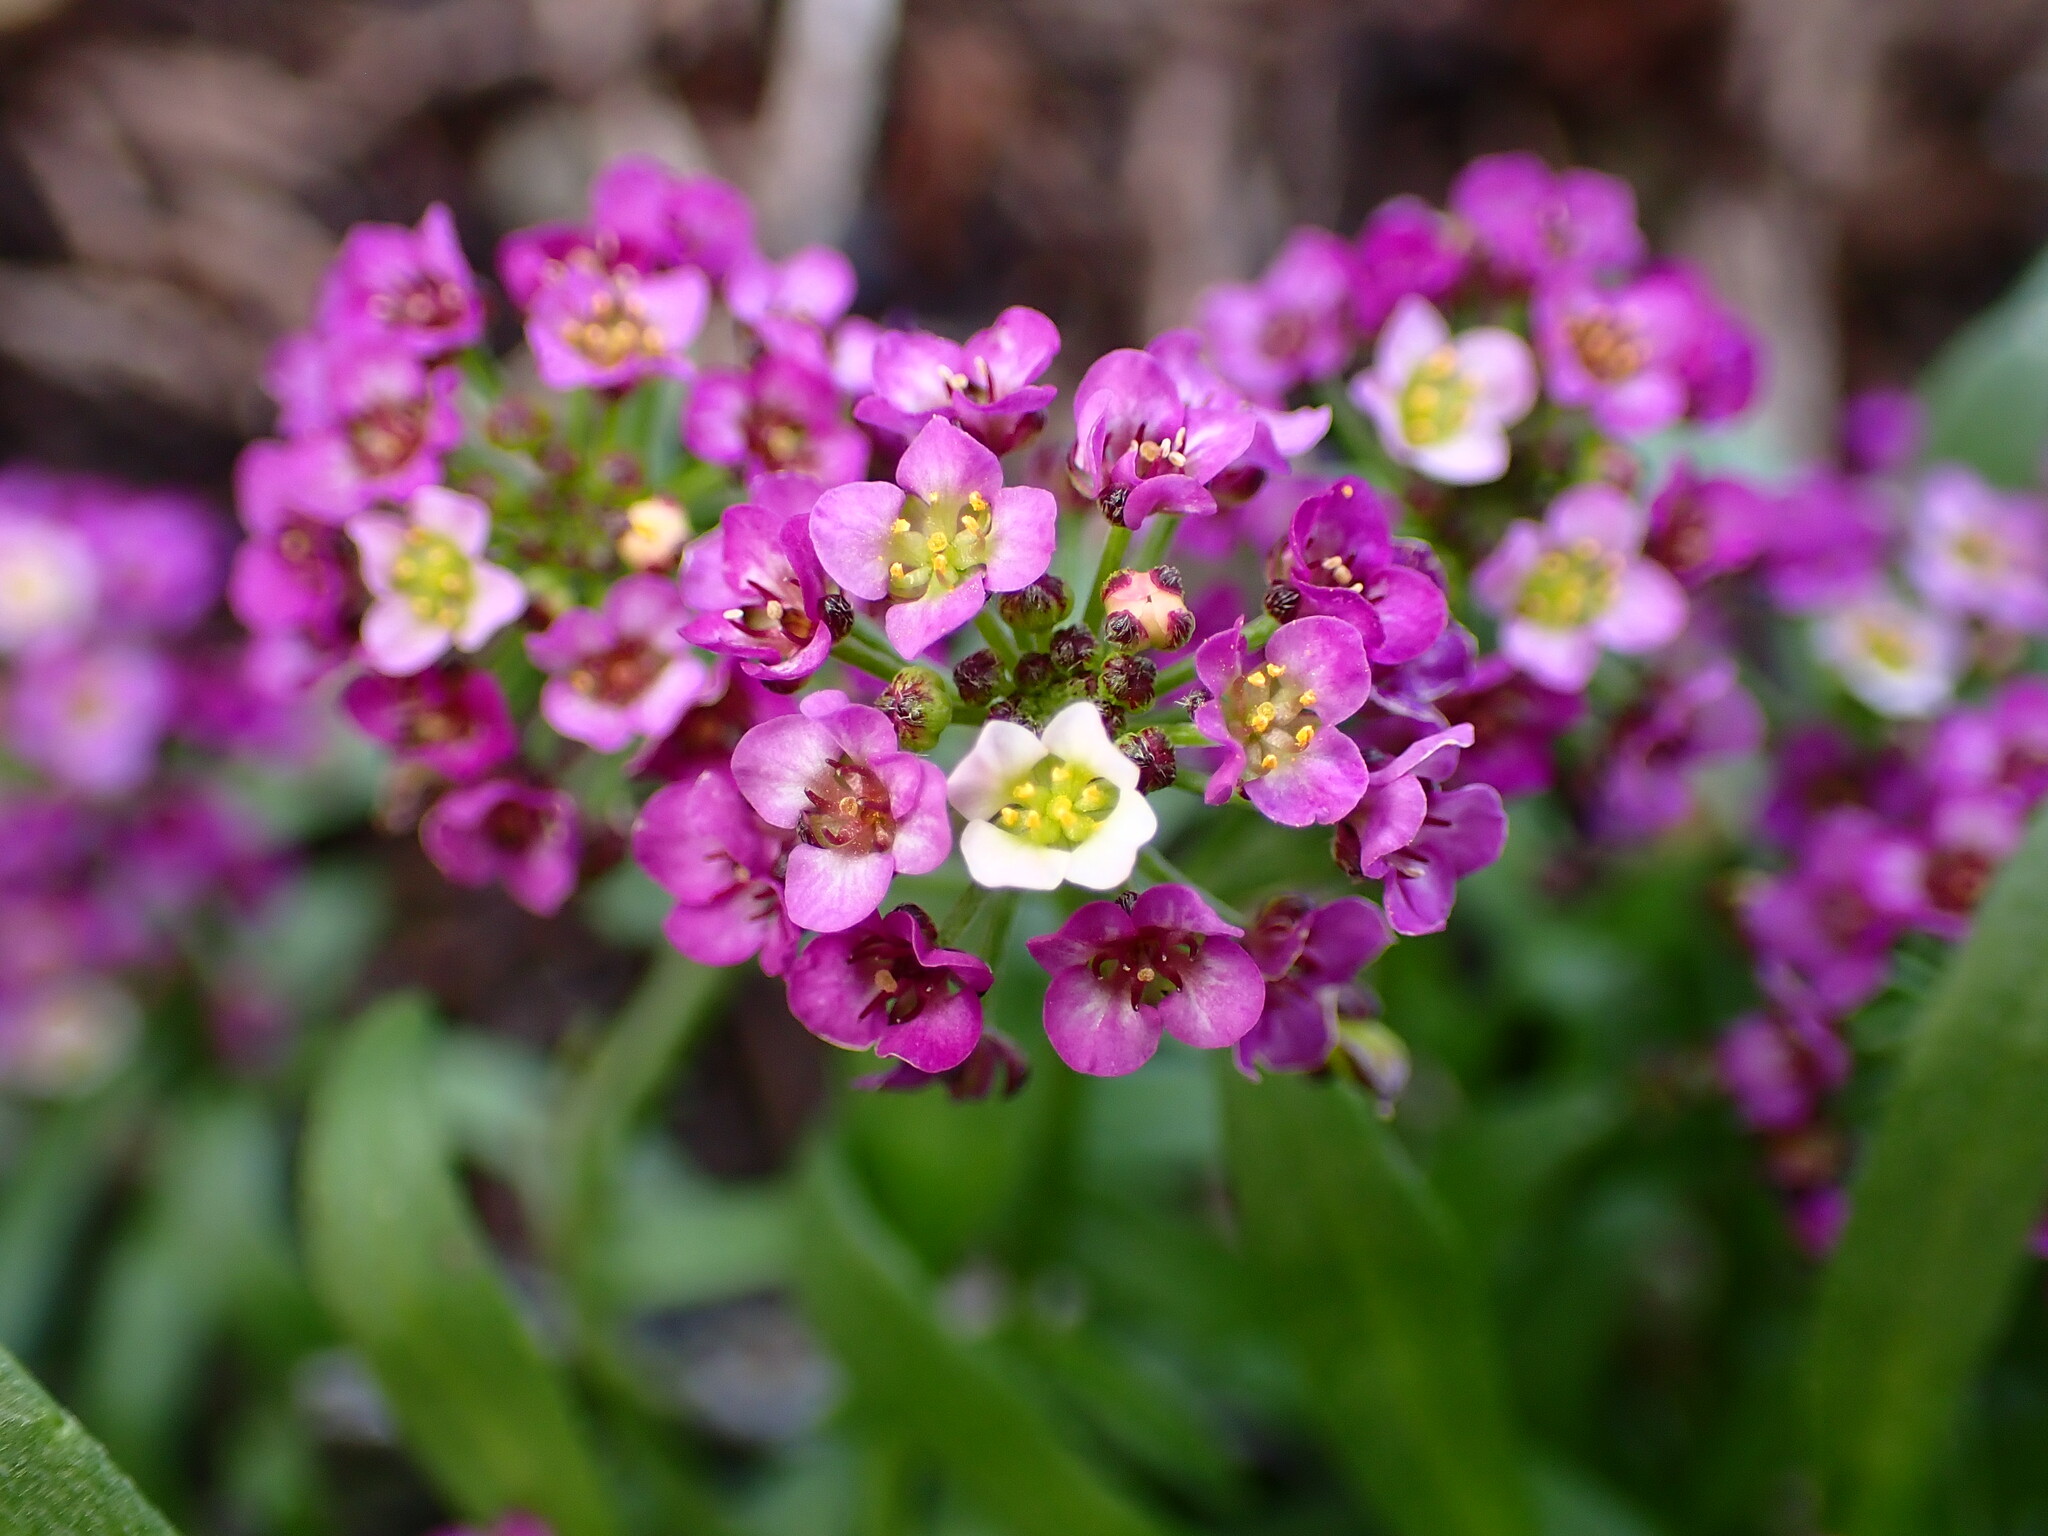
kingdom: Plantae
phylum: Tracheophyta
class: Magnoliopsida
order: Brassicales
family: Brassicaceae
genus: Lobularia
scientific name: Lobularia maritima
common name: Sweet alison
